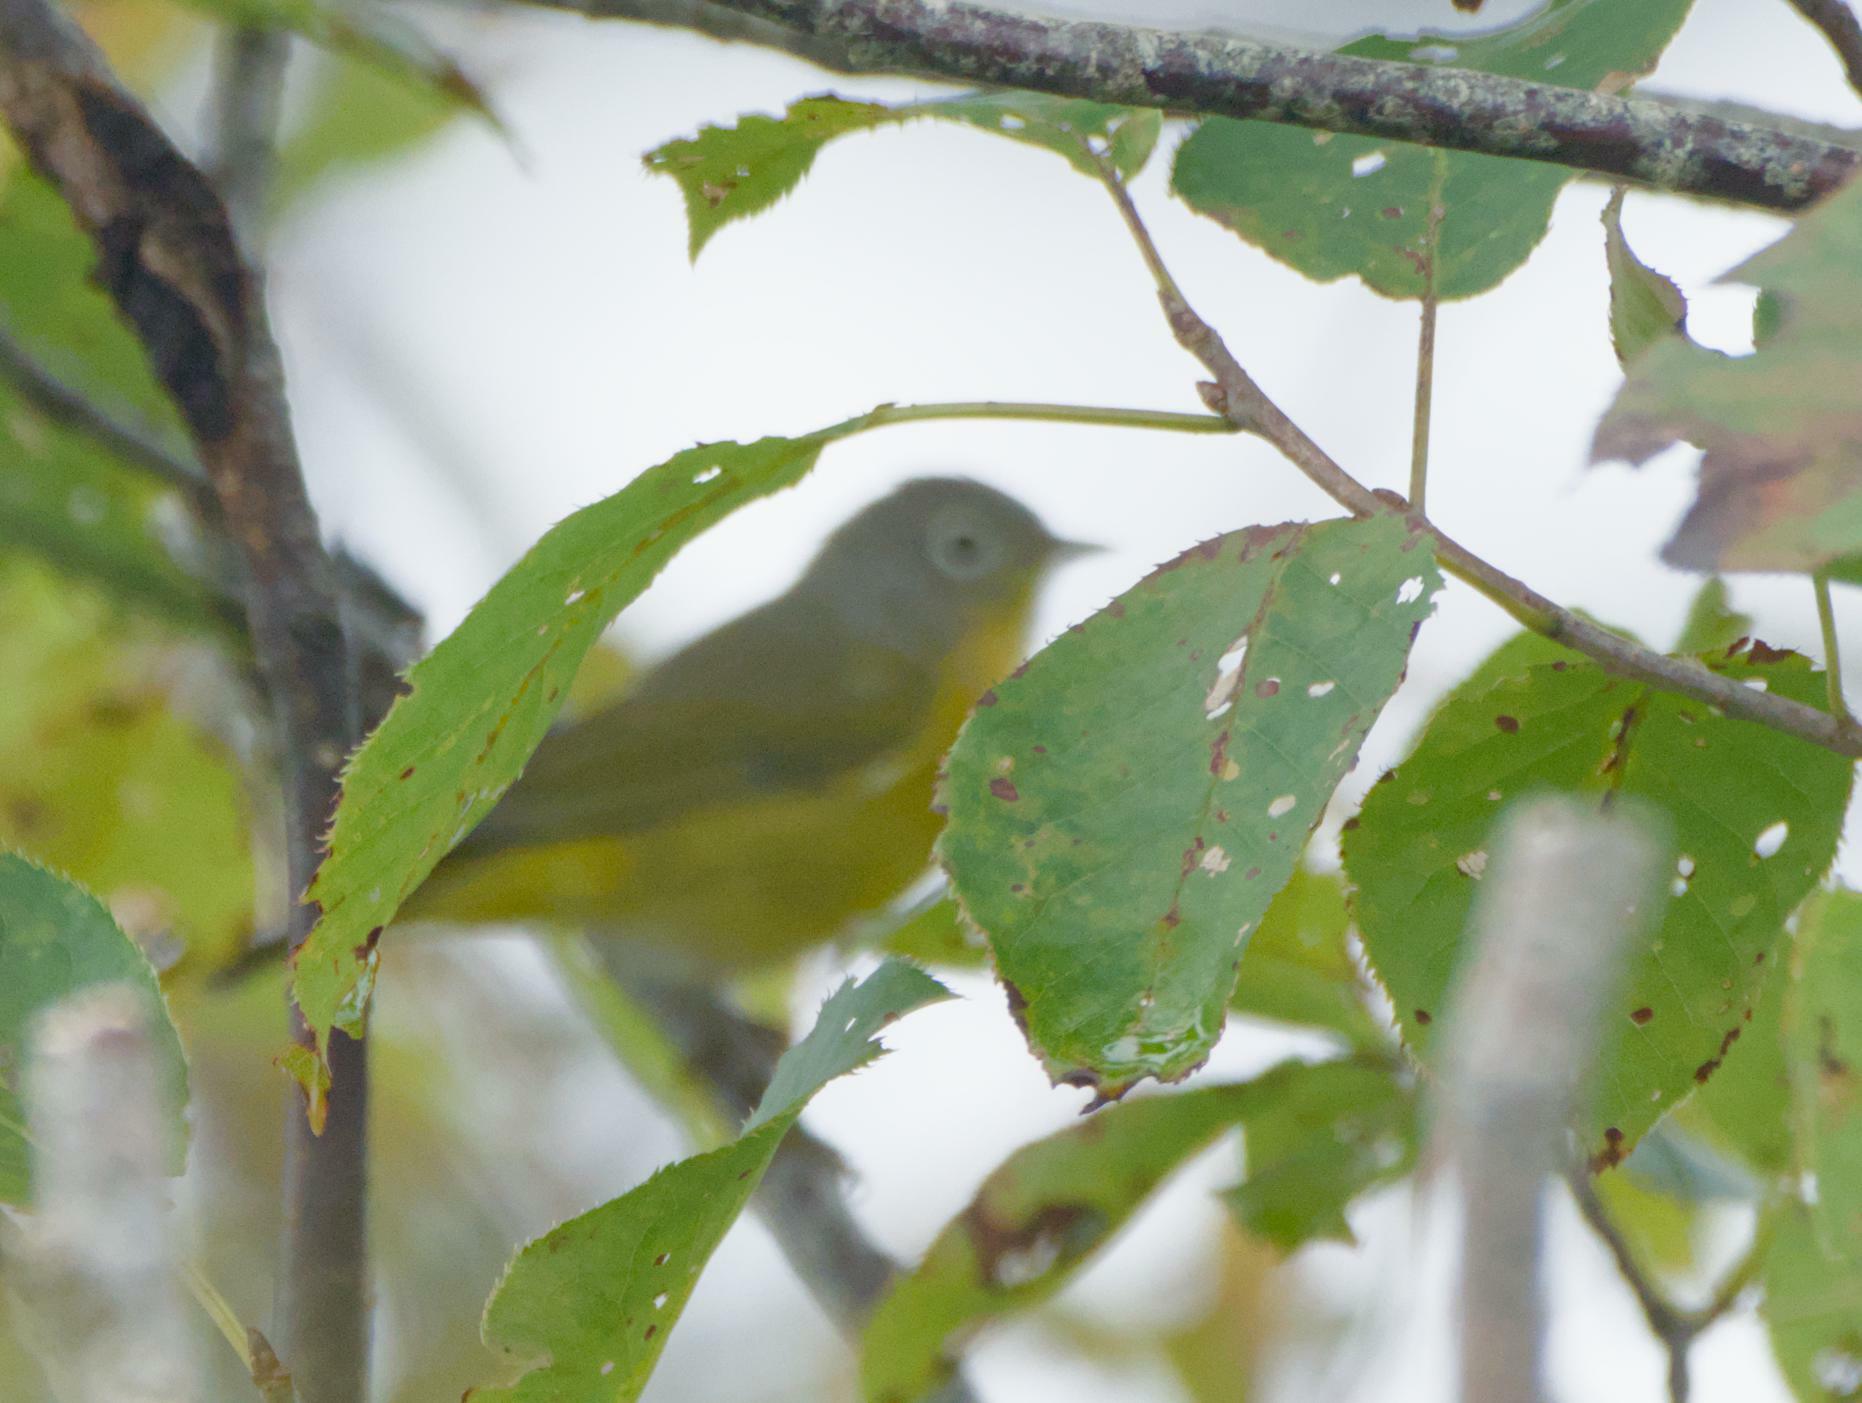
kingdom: Animalia
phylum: Chordata
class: Aves
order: Passeriformes
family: Parulidae
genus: Leiothlypis
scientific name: Leiothlypis ruficapilla
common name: Nashville warbler
